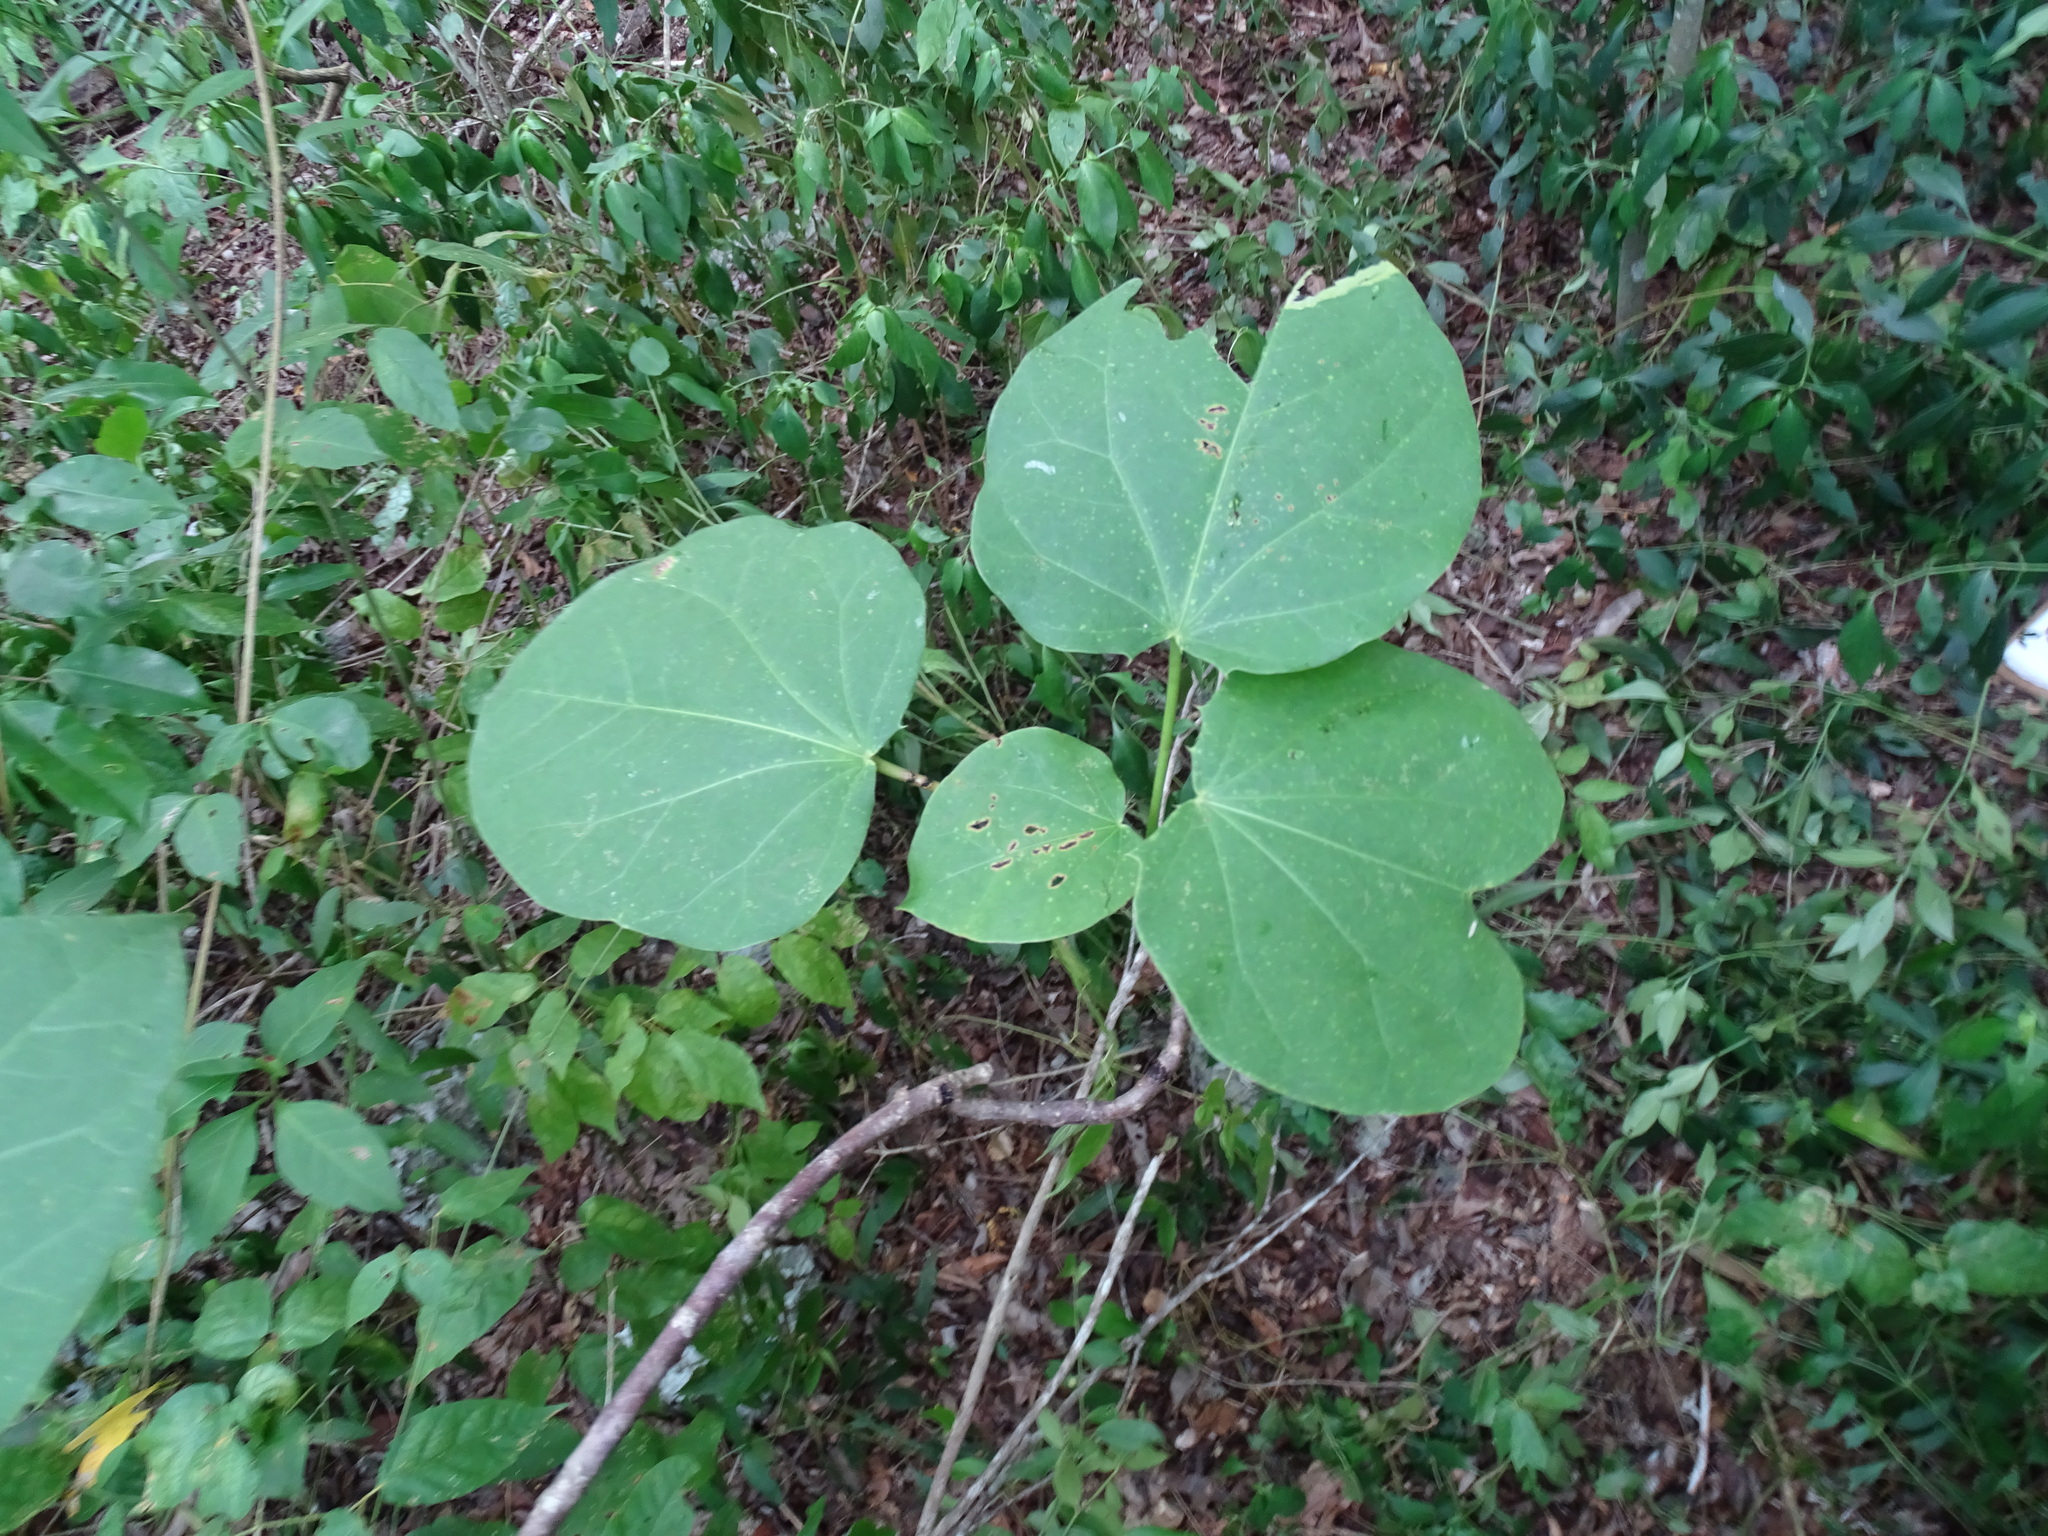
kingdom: Plantae
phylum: Tracheophyta
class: Magnoliopsida
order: Malpighiales
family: Euphorbiaceae
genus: Jatropha
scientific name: Jatropha gaumeri
